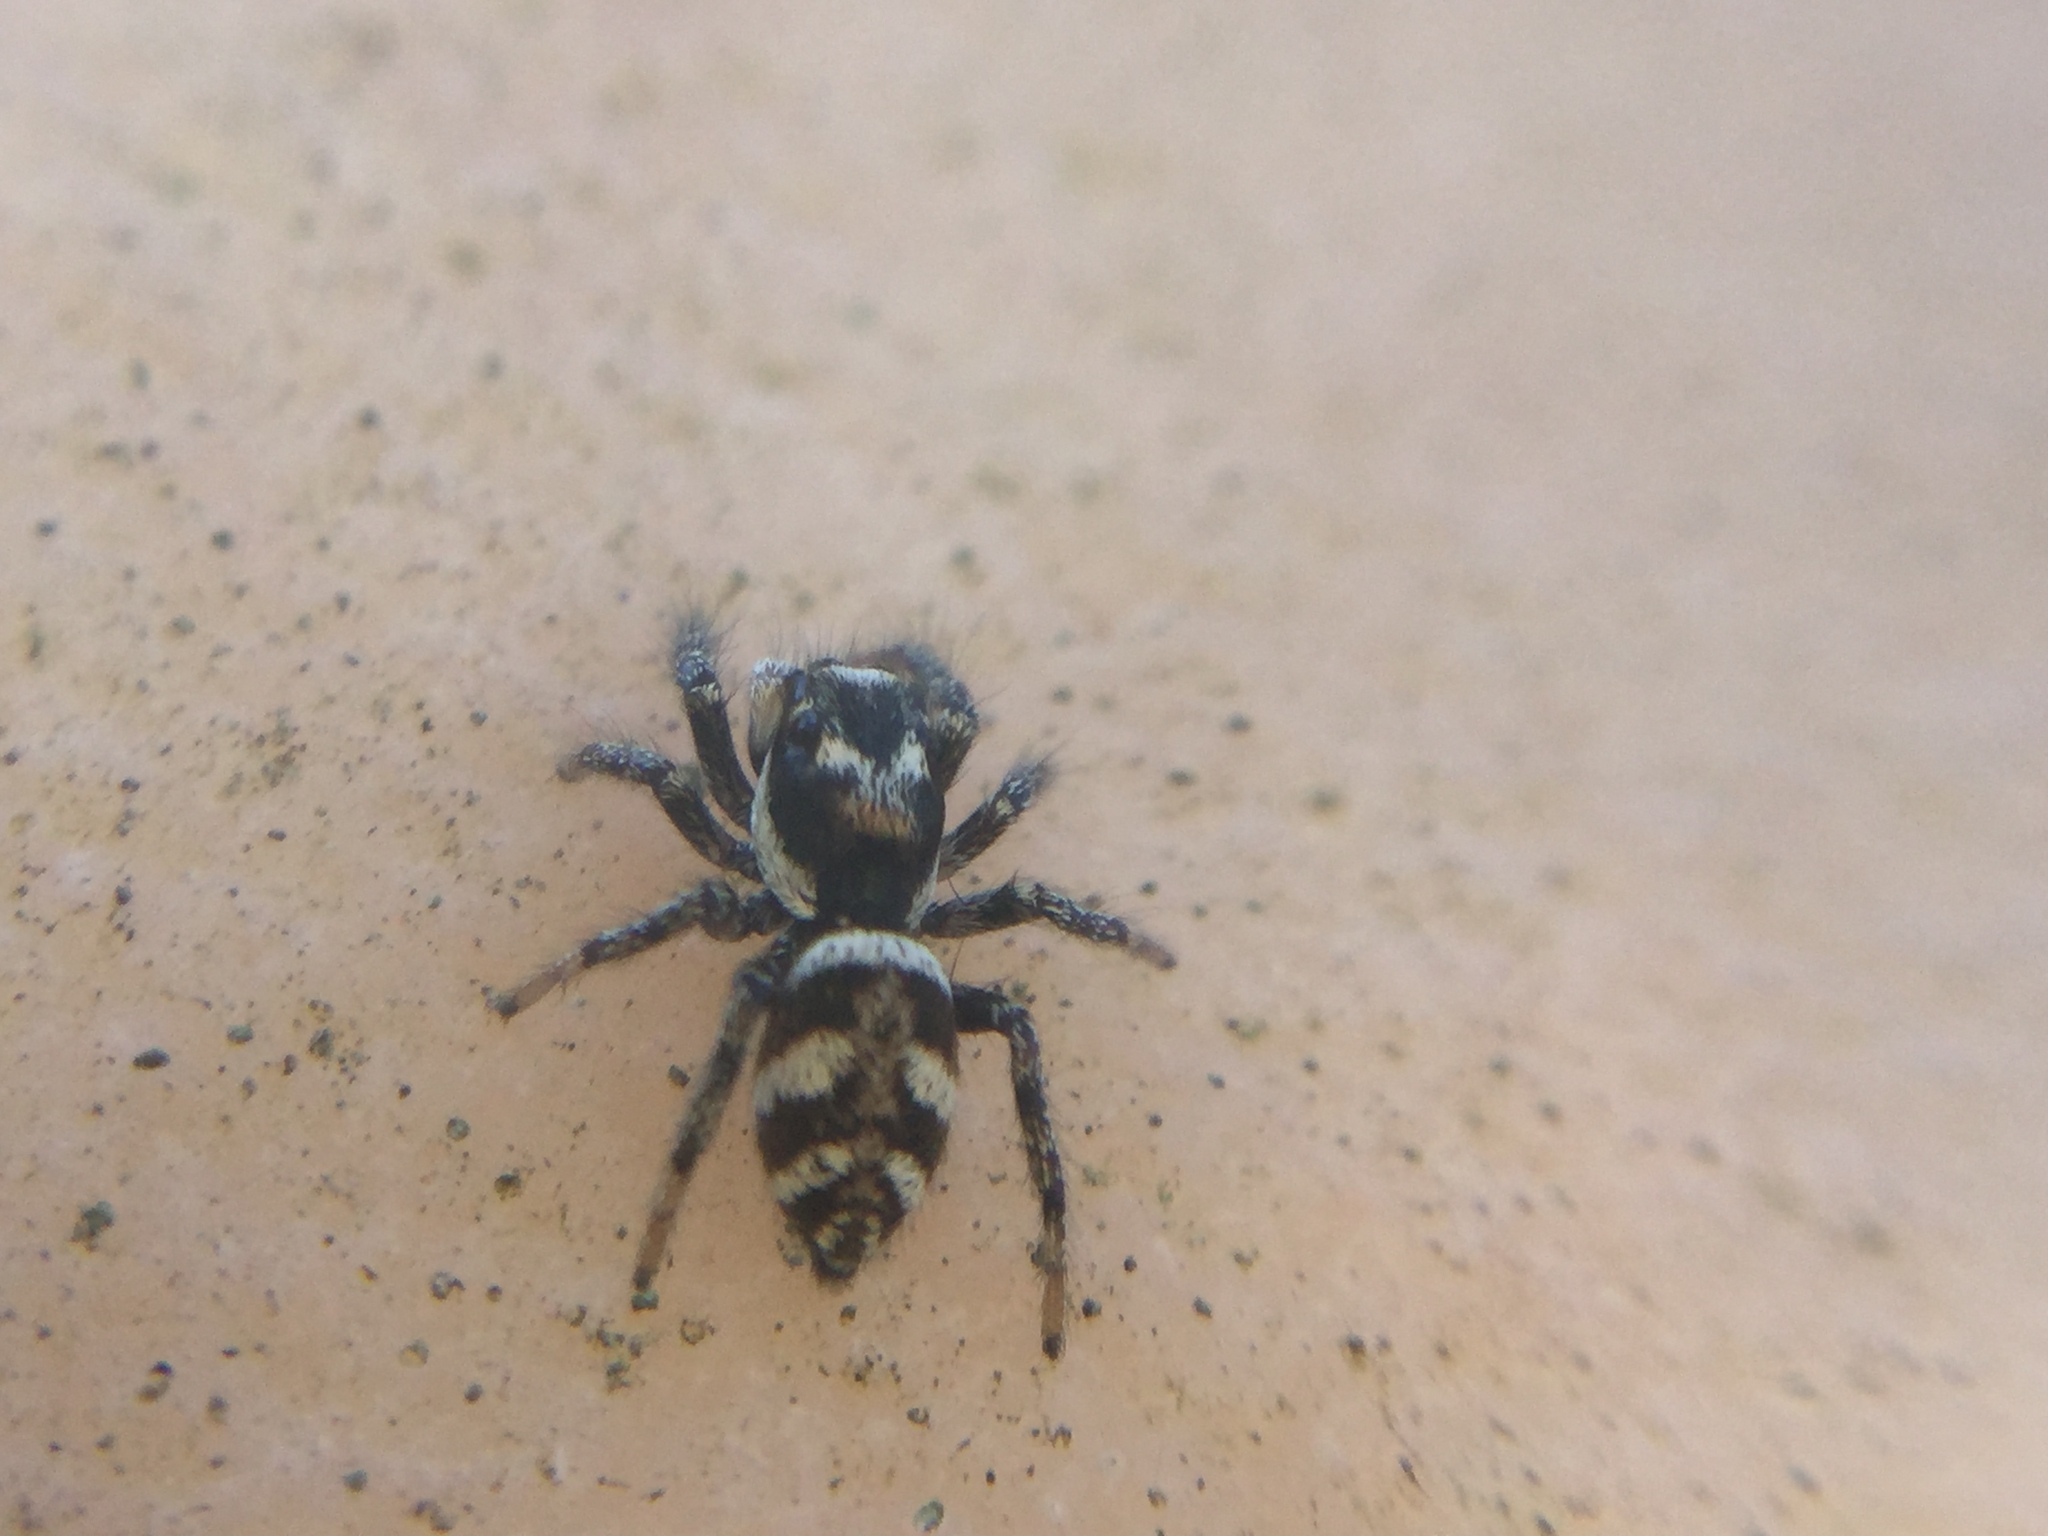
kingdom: Animalia
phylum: Arthropoda
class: Arachnida
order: Araneae
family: Salticidae
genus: Salticus
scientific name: Salticus scenicus
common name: Zebra jumper
